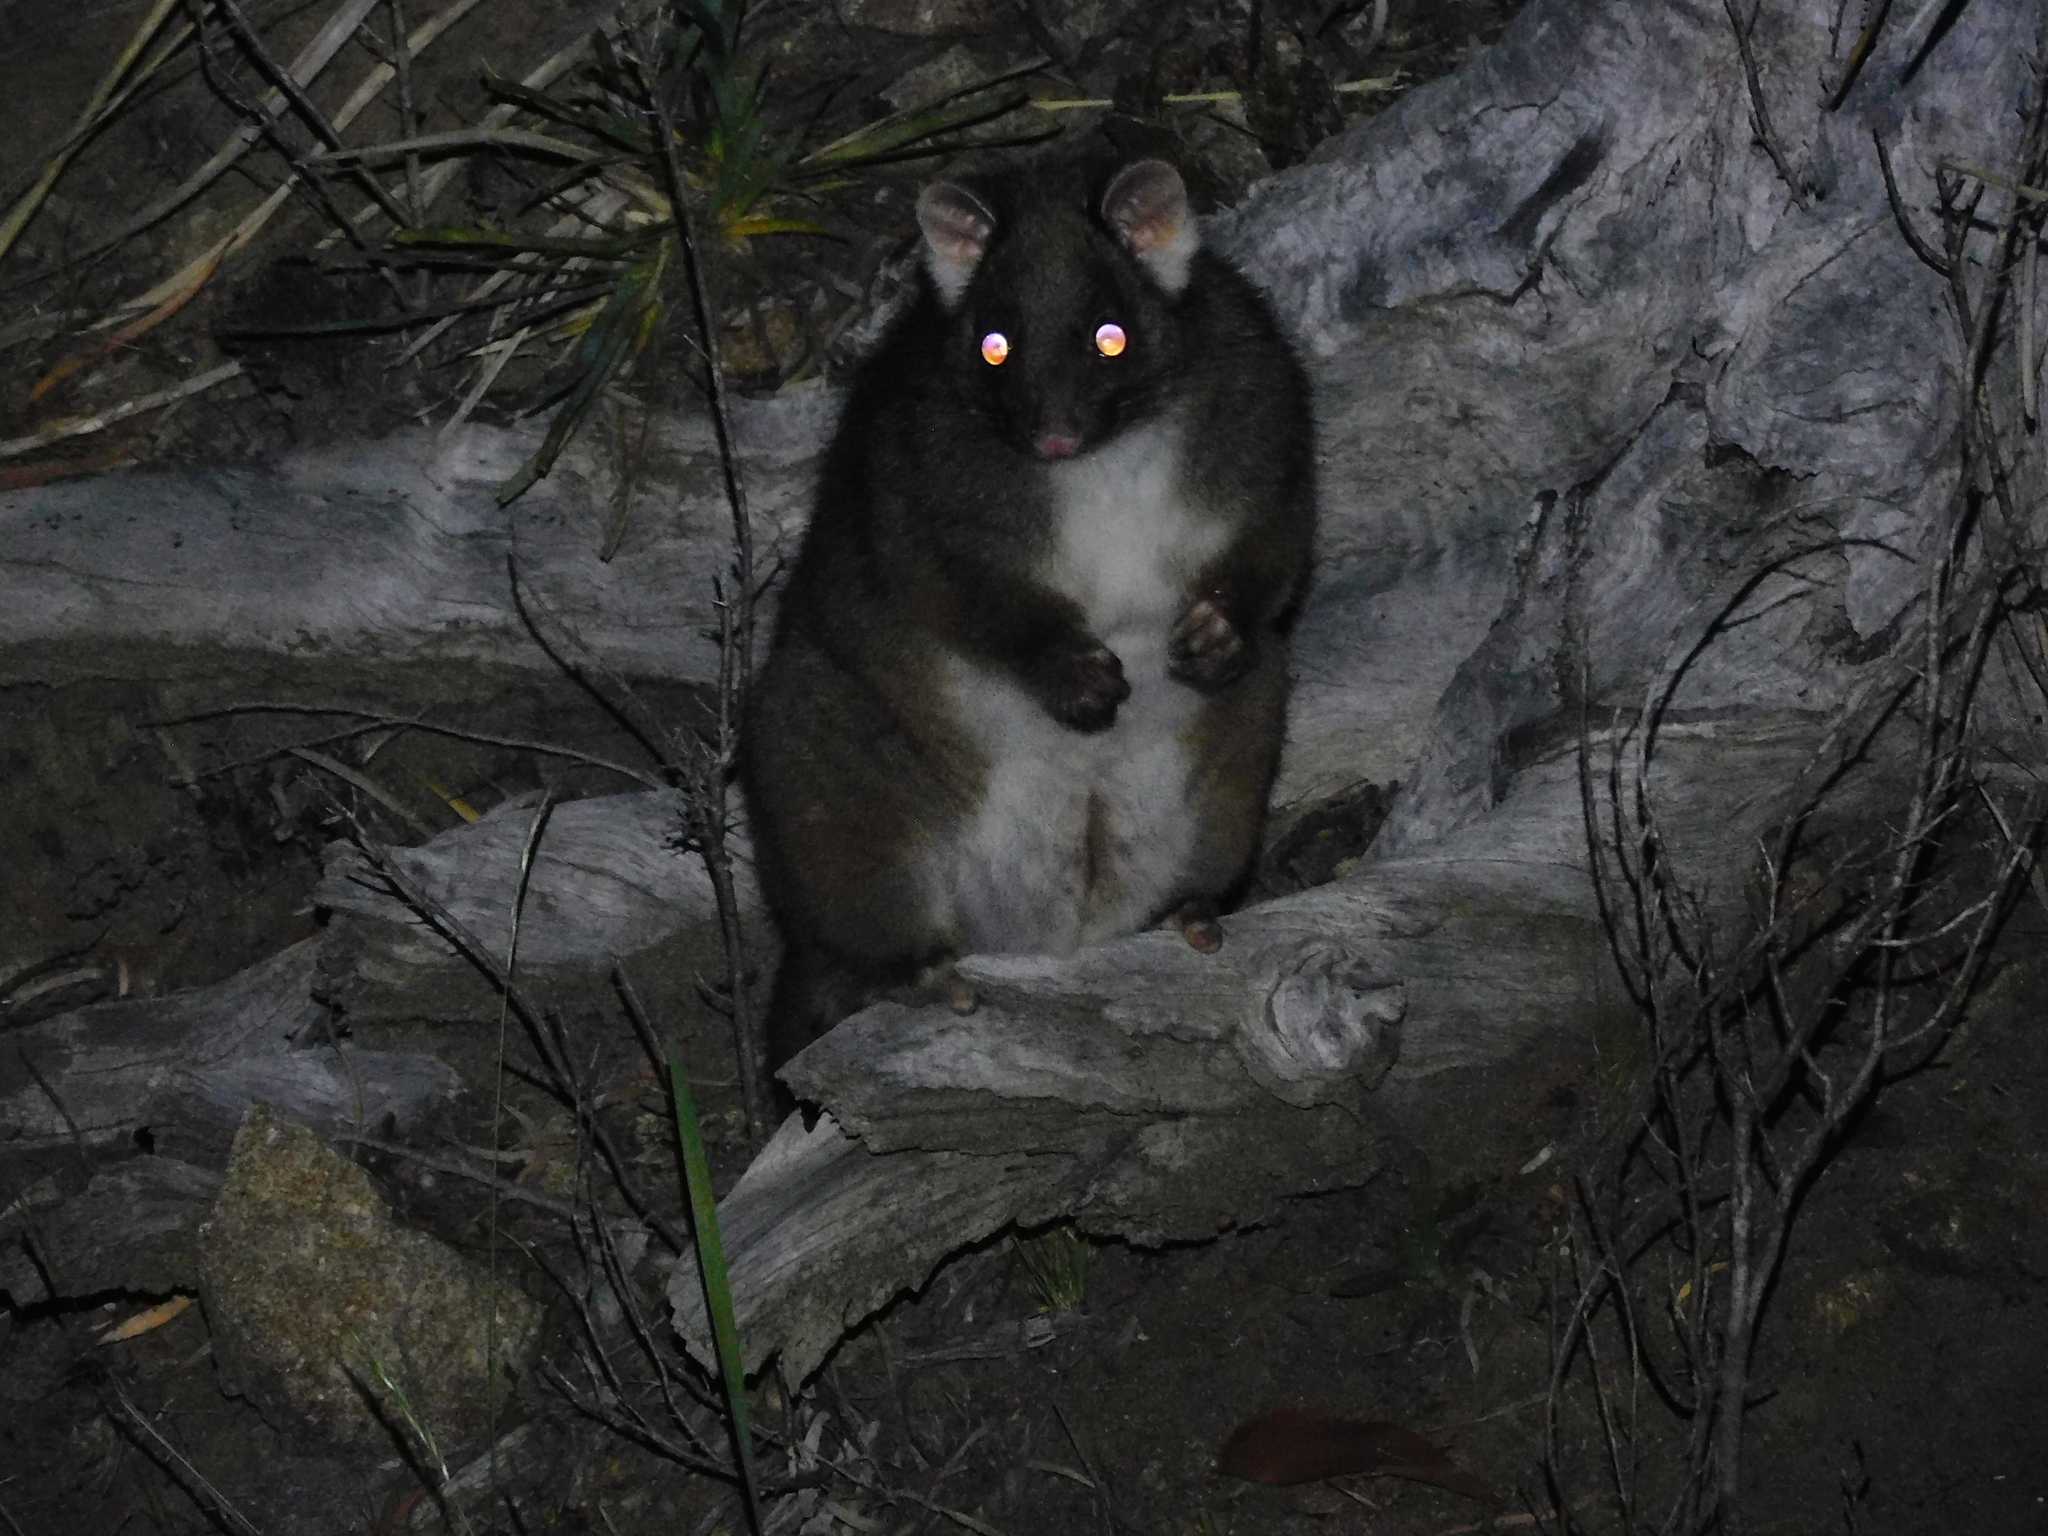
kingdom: Animalia
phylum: Chordata
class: Mammalia
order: Diprotodontia
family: Pseudocheiridae
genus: Pseudocheirus
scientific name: Pseudocheirus peregrinus
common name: Common ringtail possum
